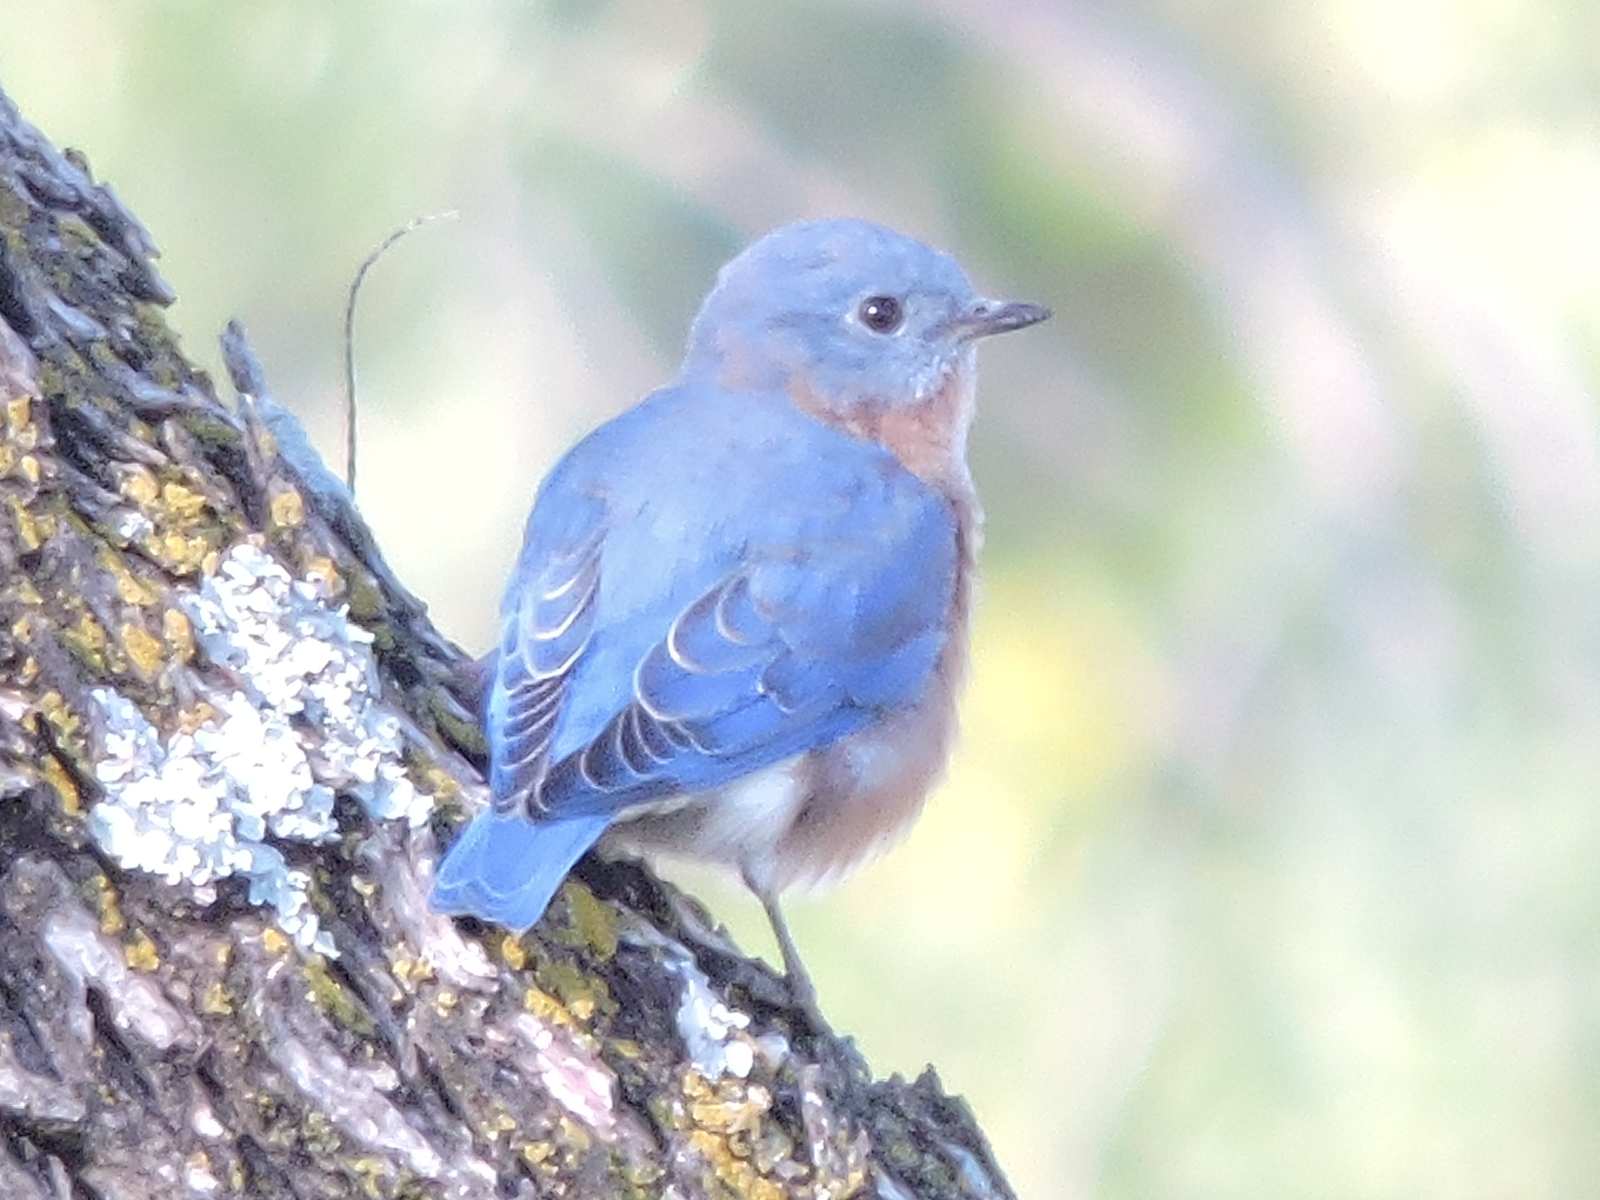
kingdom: Animalia
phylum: Chordata
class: Aves
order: Passeriformes
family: Turdidae
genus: Sialia
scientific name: Sialia sialis
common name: Eastern bluebird
